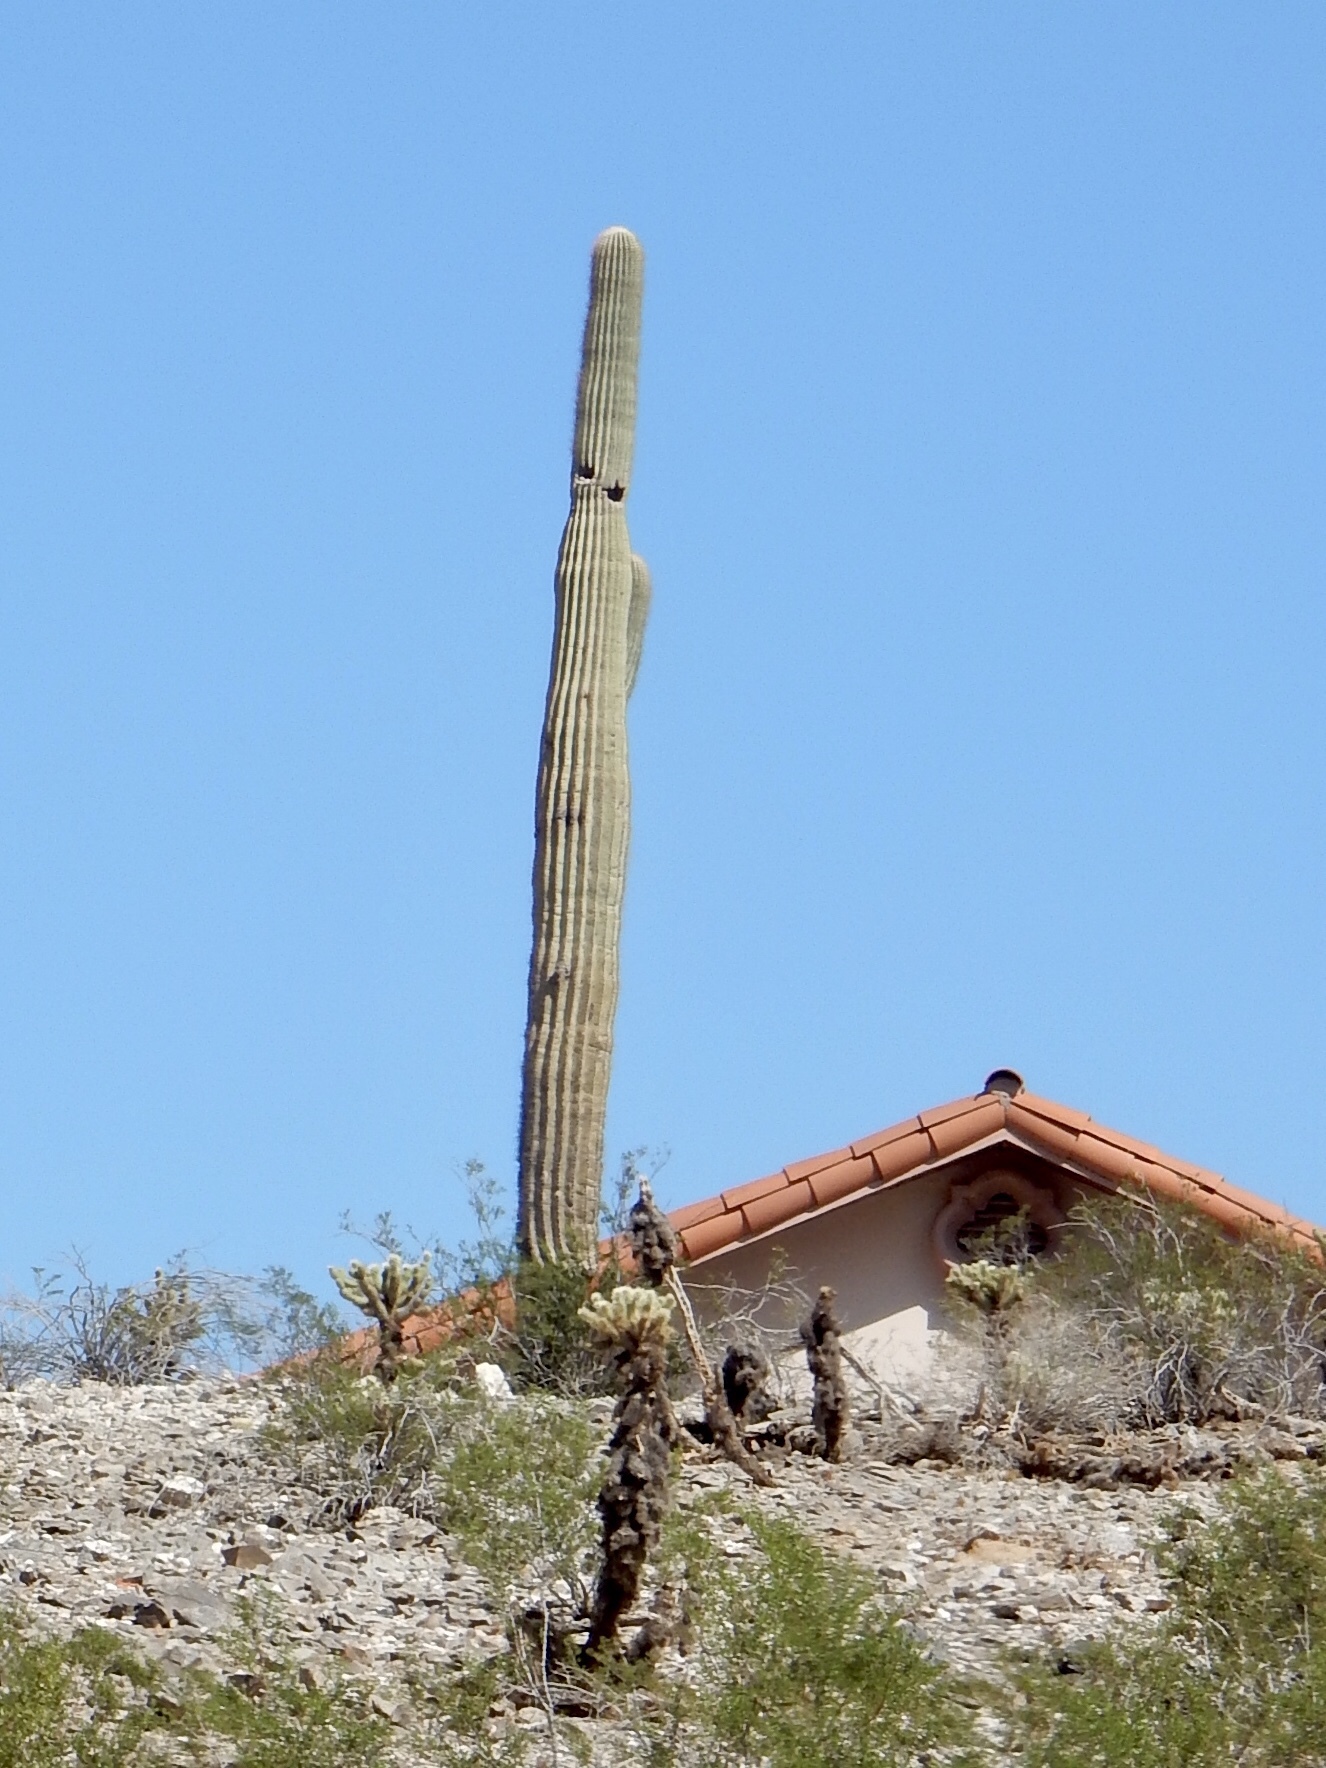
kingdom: Plantae
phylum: Tracheophyta
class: Magnoliopsida
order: Caryophyllales
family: Cactaceae
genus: Carnegiea
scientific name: Carnegiea gigantea
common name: Saguaro
